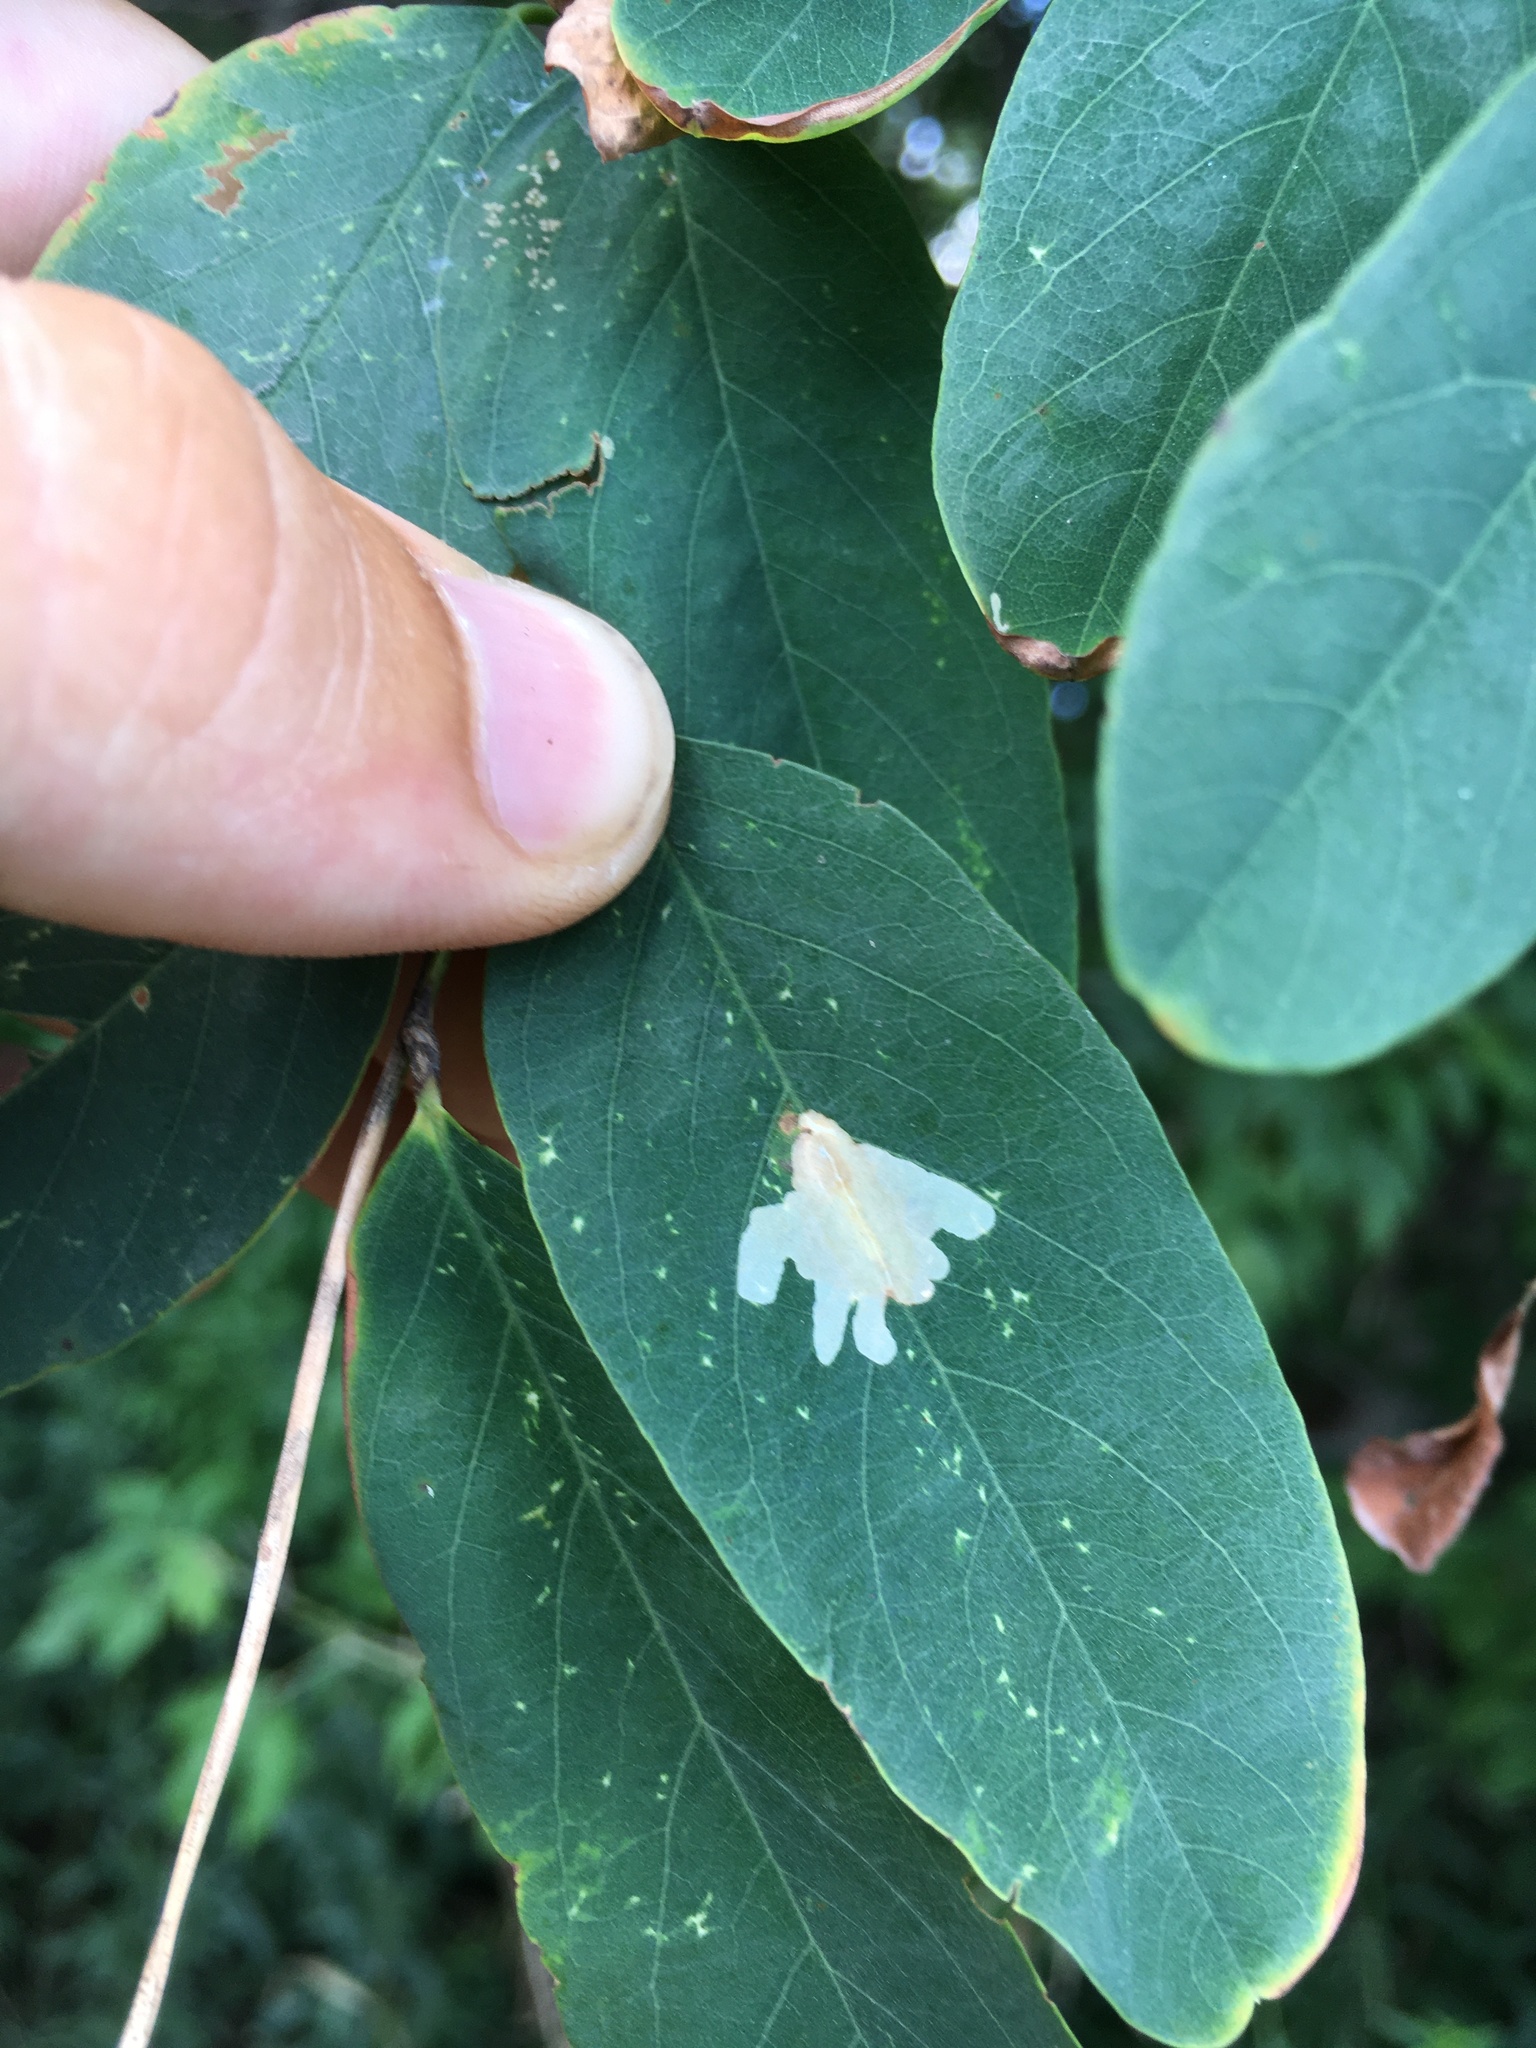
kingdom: Animalia
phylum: Arthropoda
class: Insecta
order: Lepidoptera
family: Gracillariidae
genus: Parectopa
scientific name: Parectopa robiniella
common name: Locust digitate leafminer
